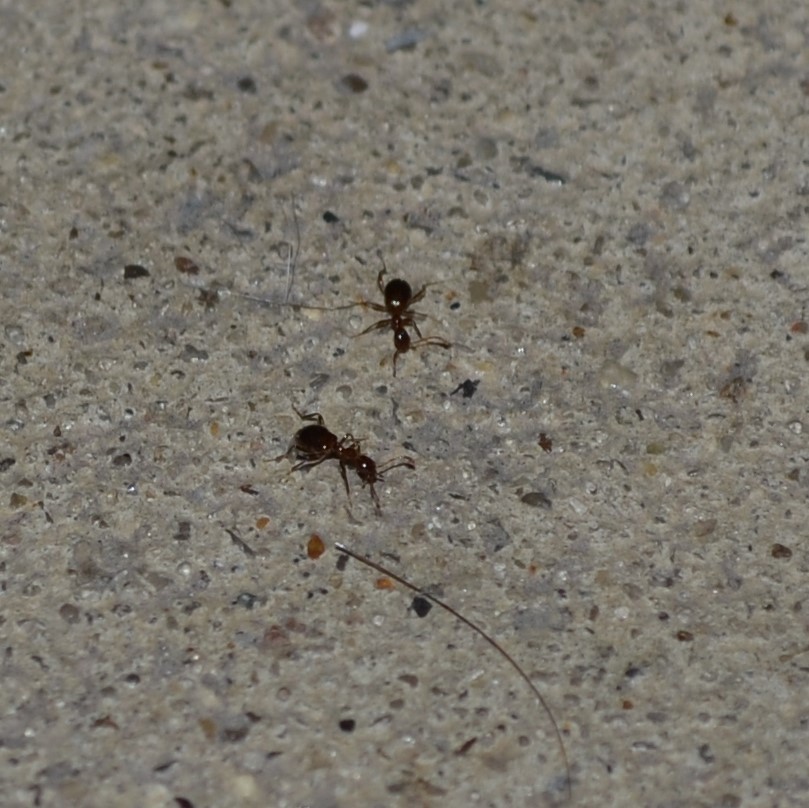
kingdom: Animalia
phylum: Arthropoda
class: Insecta
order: Coleoptera
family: Anthicidae
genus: Acanthinus
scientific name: Acanthinus
